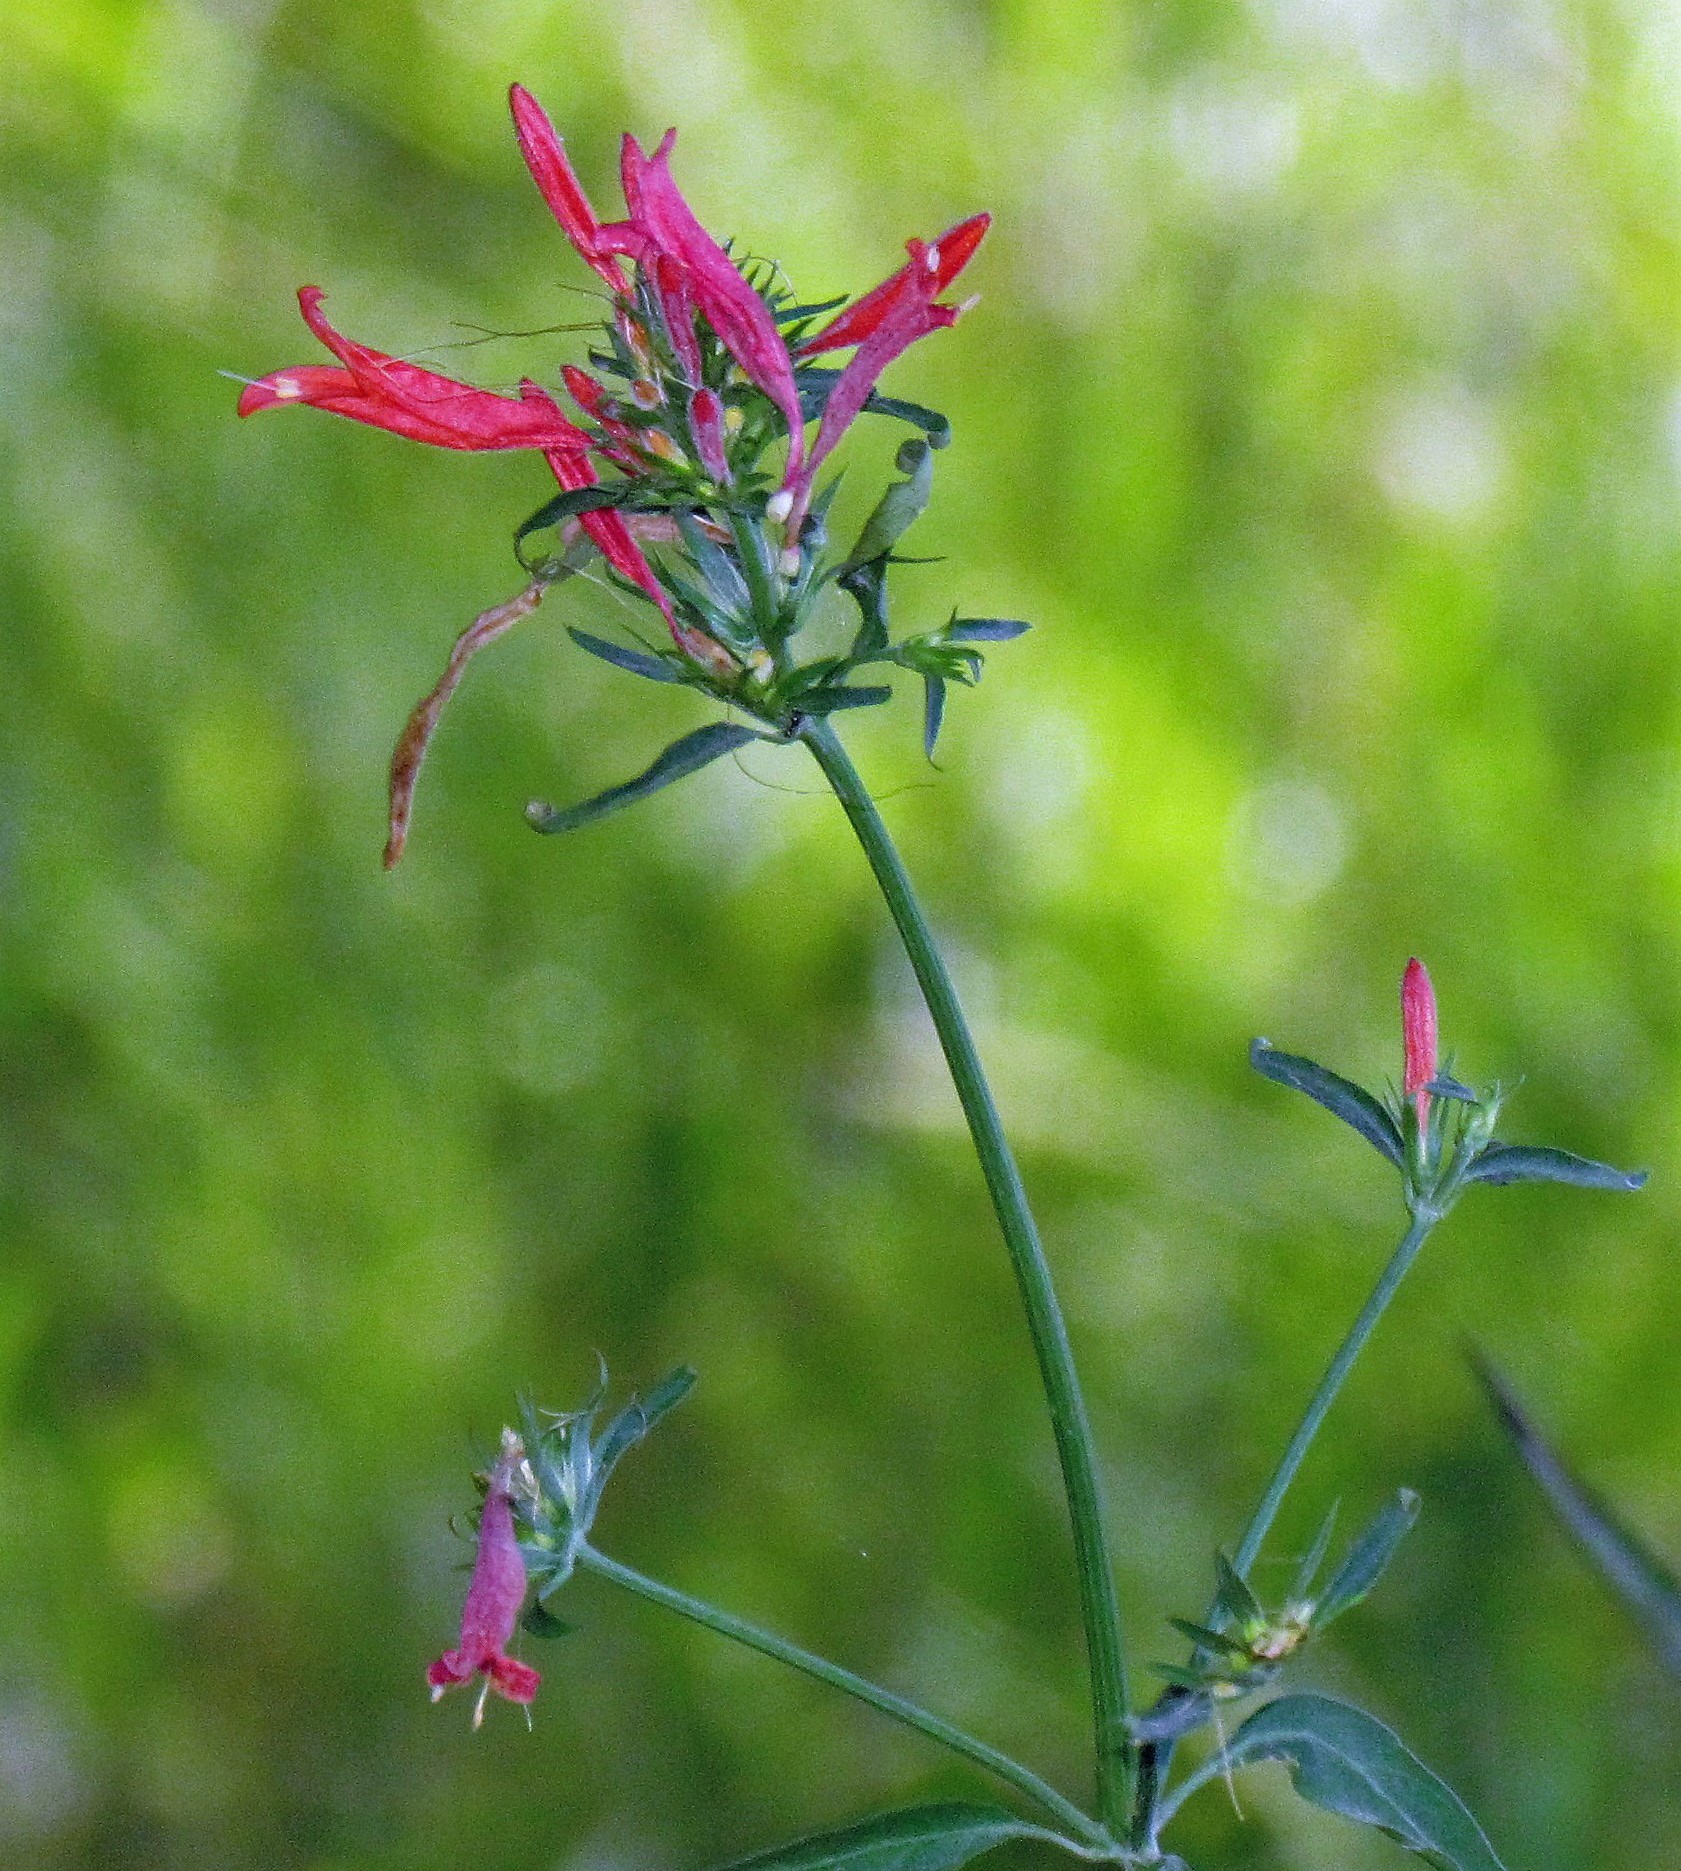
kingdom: Plantae
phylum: Tracheophyta
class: Magnoliopsida
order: Lamiales
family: Acanthaceae
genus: Dicliptera
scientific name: Dicliptera squarrosa
